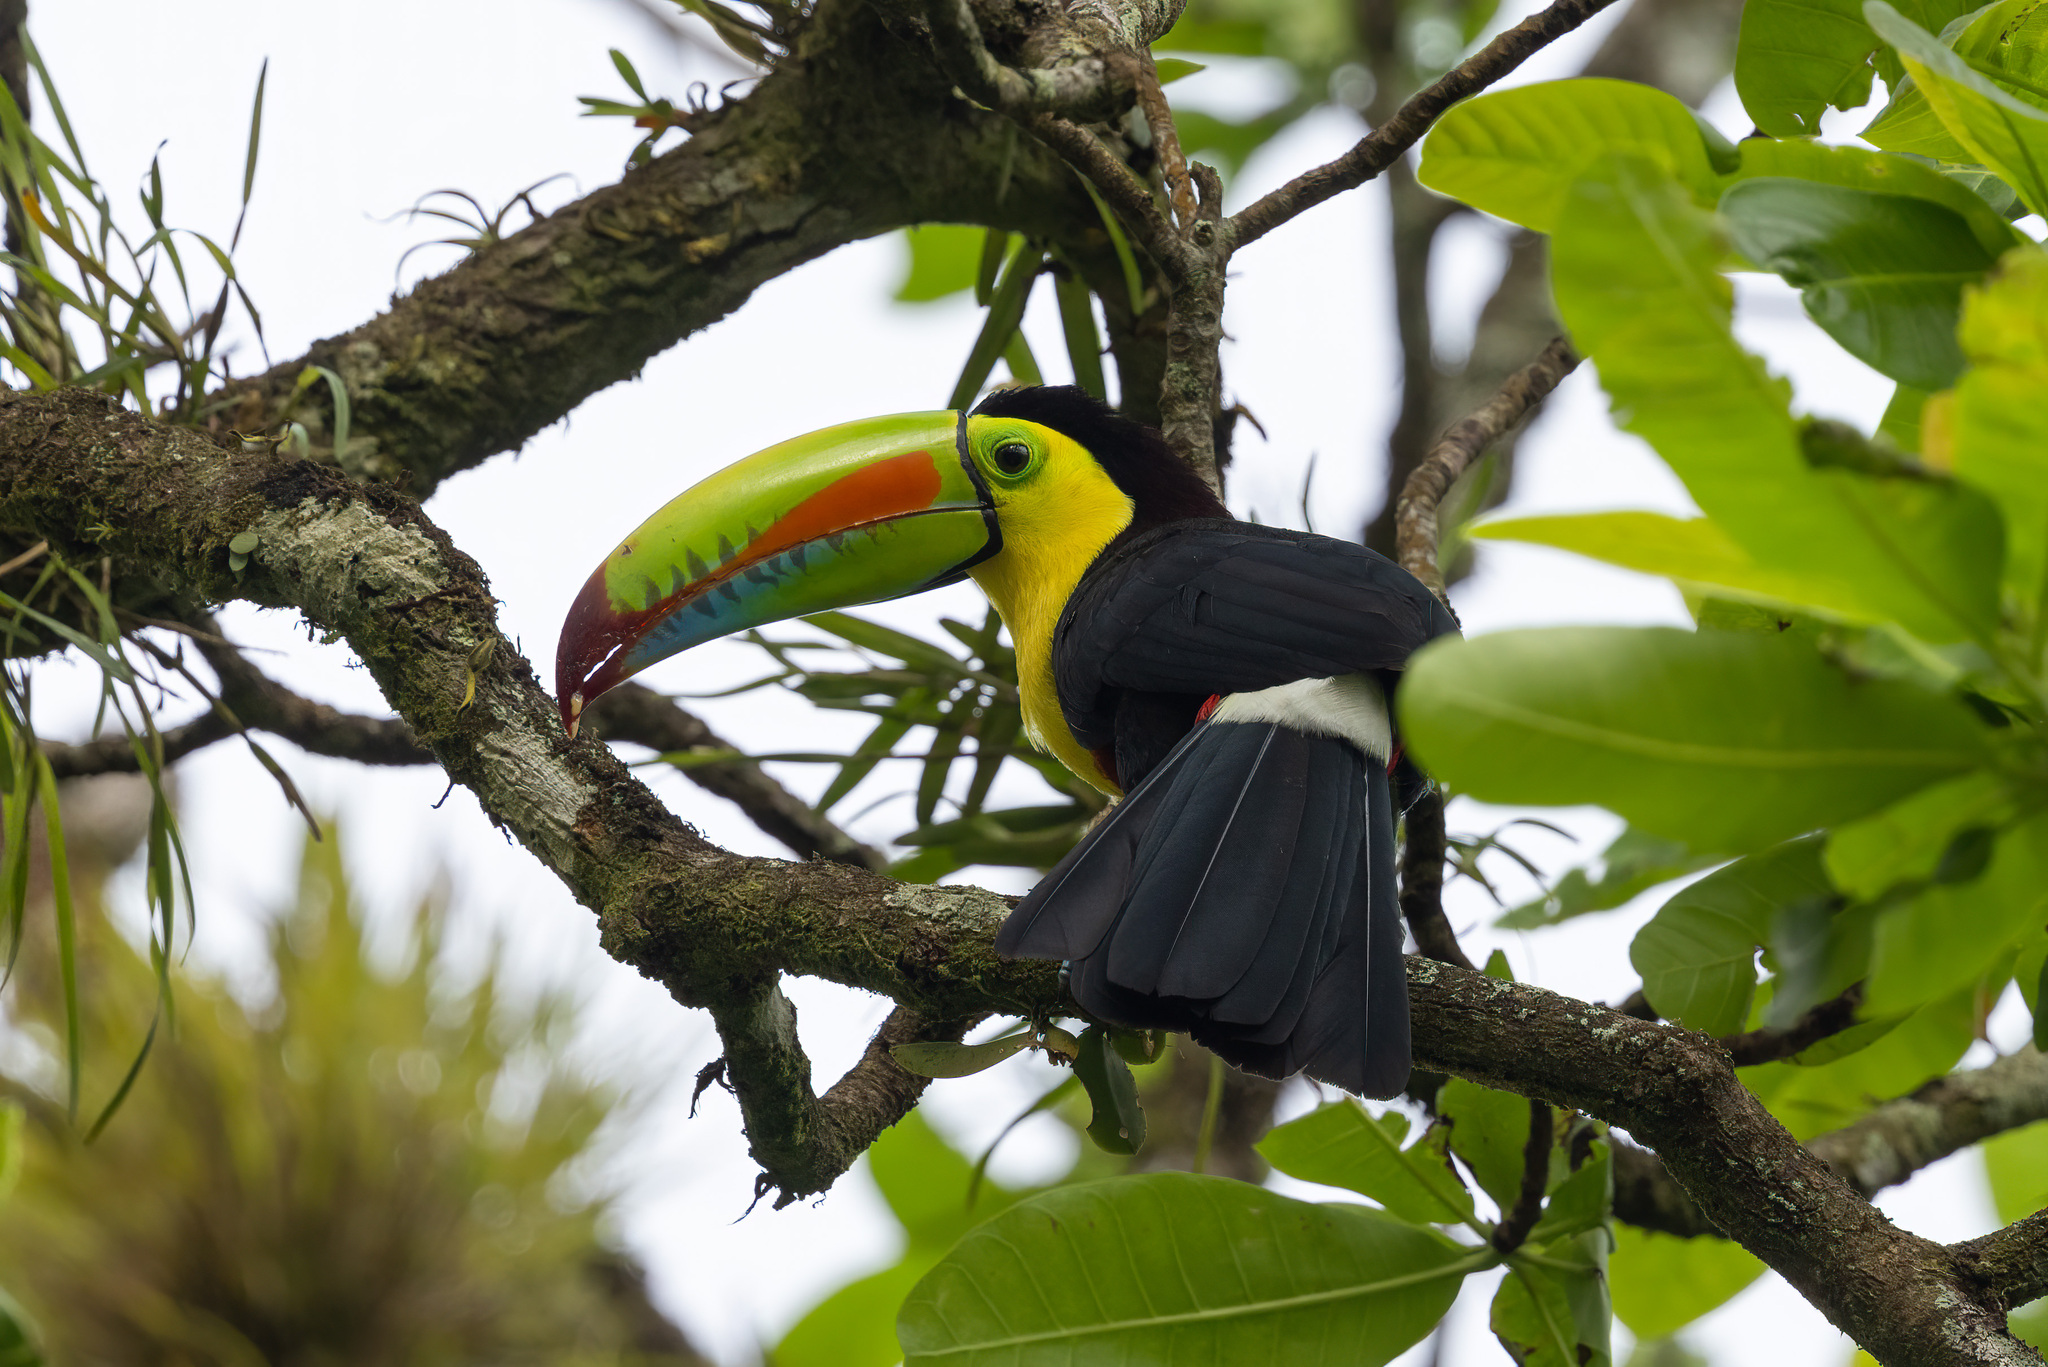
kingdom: Animalia
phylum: Chordata
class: Aves
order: Piciformes
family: Ramphastidae
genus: Ramphastos
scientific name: Ramphastos sulfuratus
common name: Keel-billed toucan
